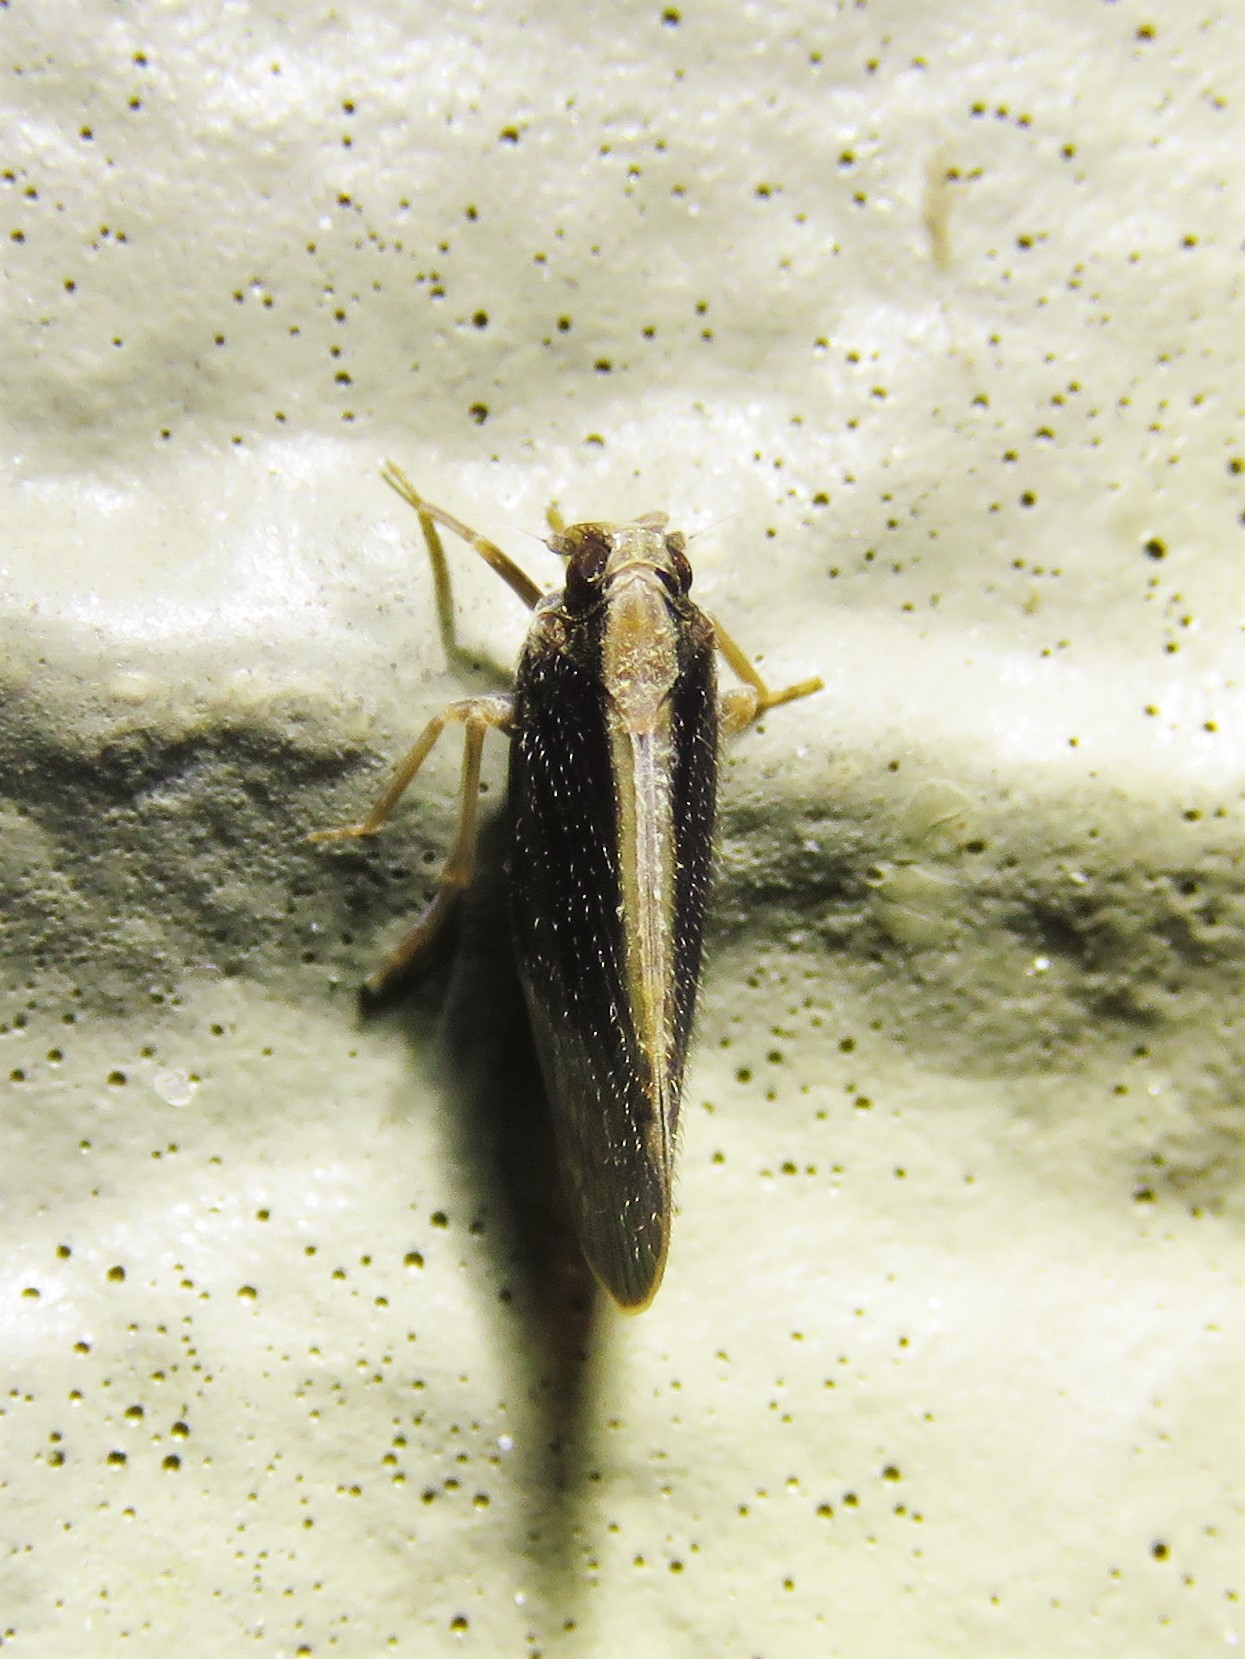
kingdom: Animalia
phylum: Arthropoda
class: Insecta
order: Hemiptera
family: Cixiidae
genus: Pintalia
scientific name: Pintalia delicata
